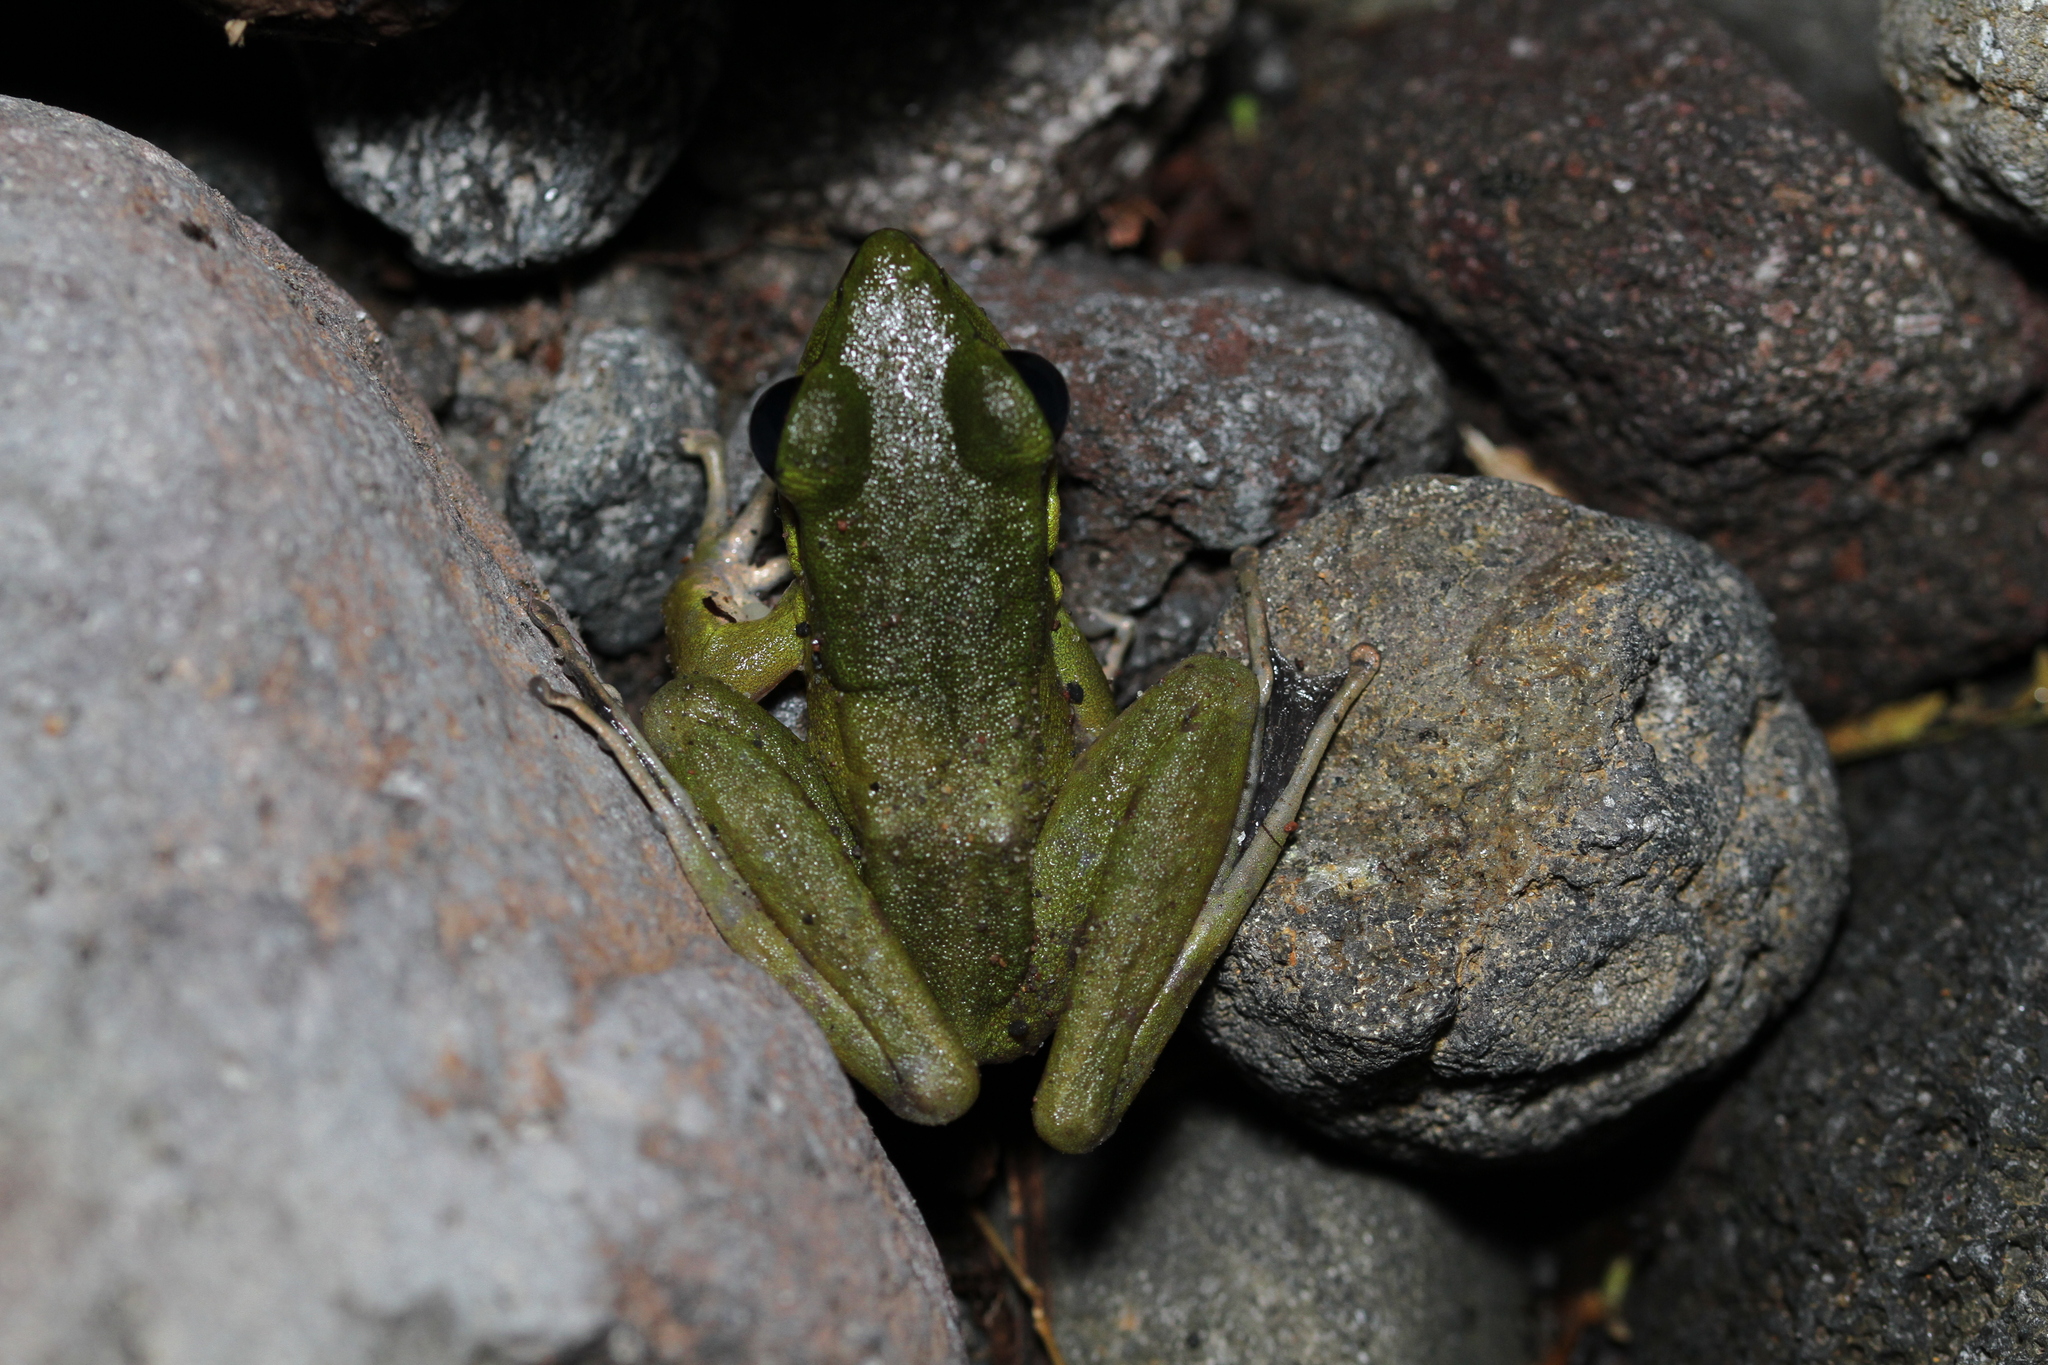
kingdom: Animalia
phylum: Chordata
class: Amphibia
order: Anura
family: Ranidae
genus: Odorrana
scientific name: Odorrana hosii
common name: Green tree frog
